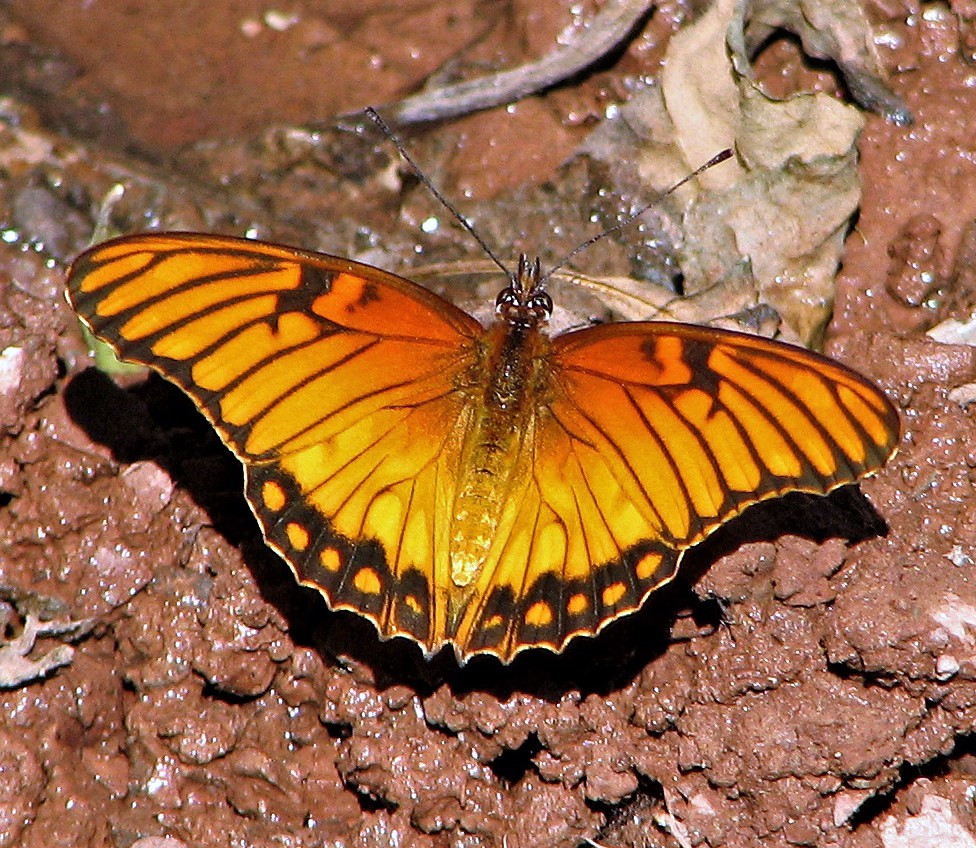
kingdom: Animalia
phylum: Arthropoda
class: Insecta
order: Lepidoptera
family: Nymphalidae
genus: Dione
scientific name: Dione moneta
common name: Mexican silverspot
